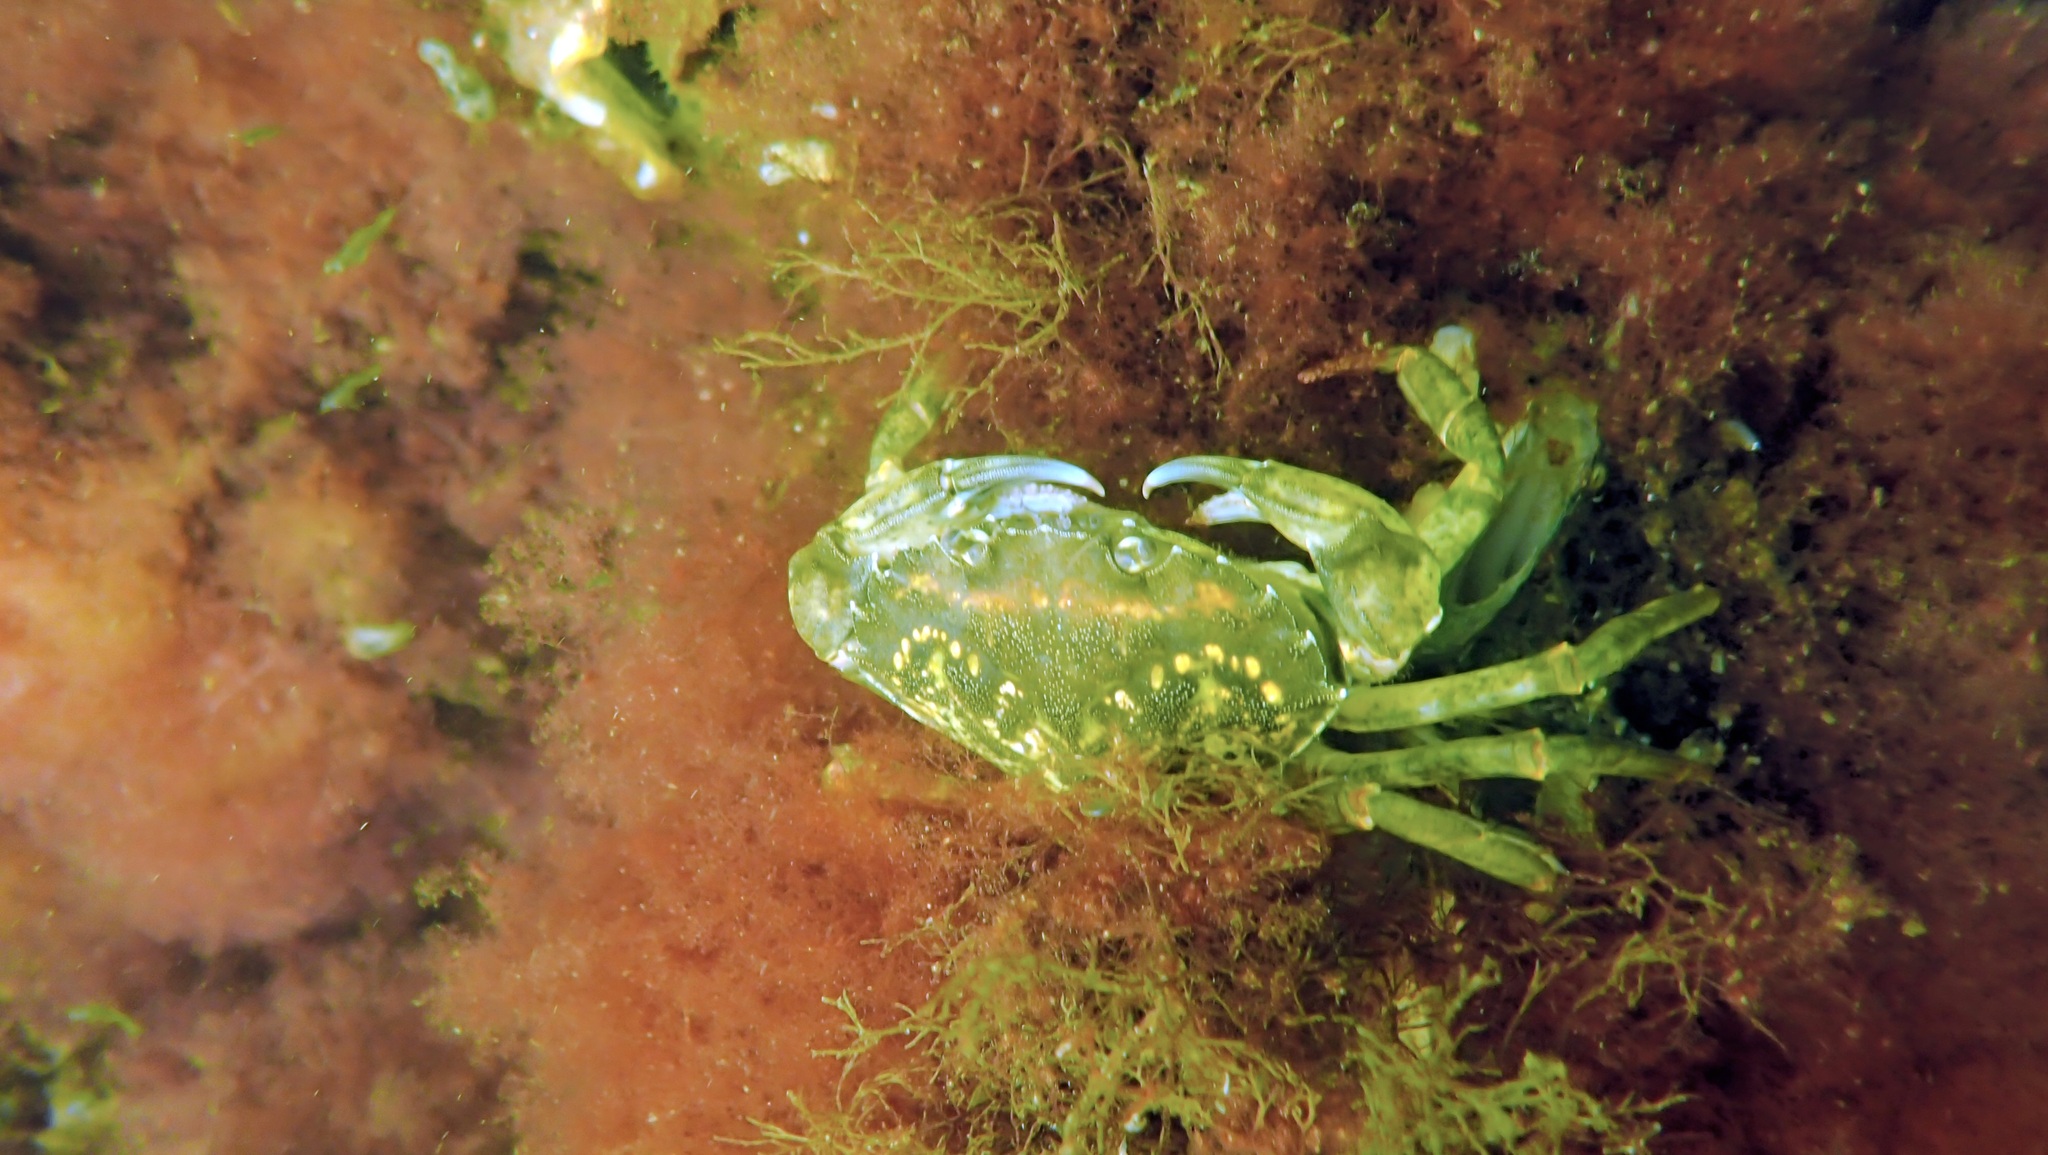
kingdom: Animalia
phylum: Arthropoda
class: Malacostraca
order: Decapoda
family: Carcinidae
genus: Carcinus
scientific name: Carcinus maenas
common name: European green crab
